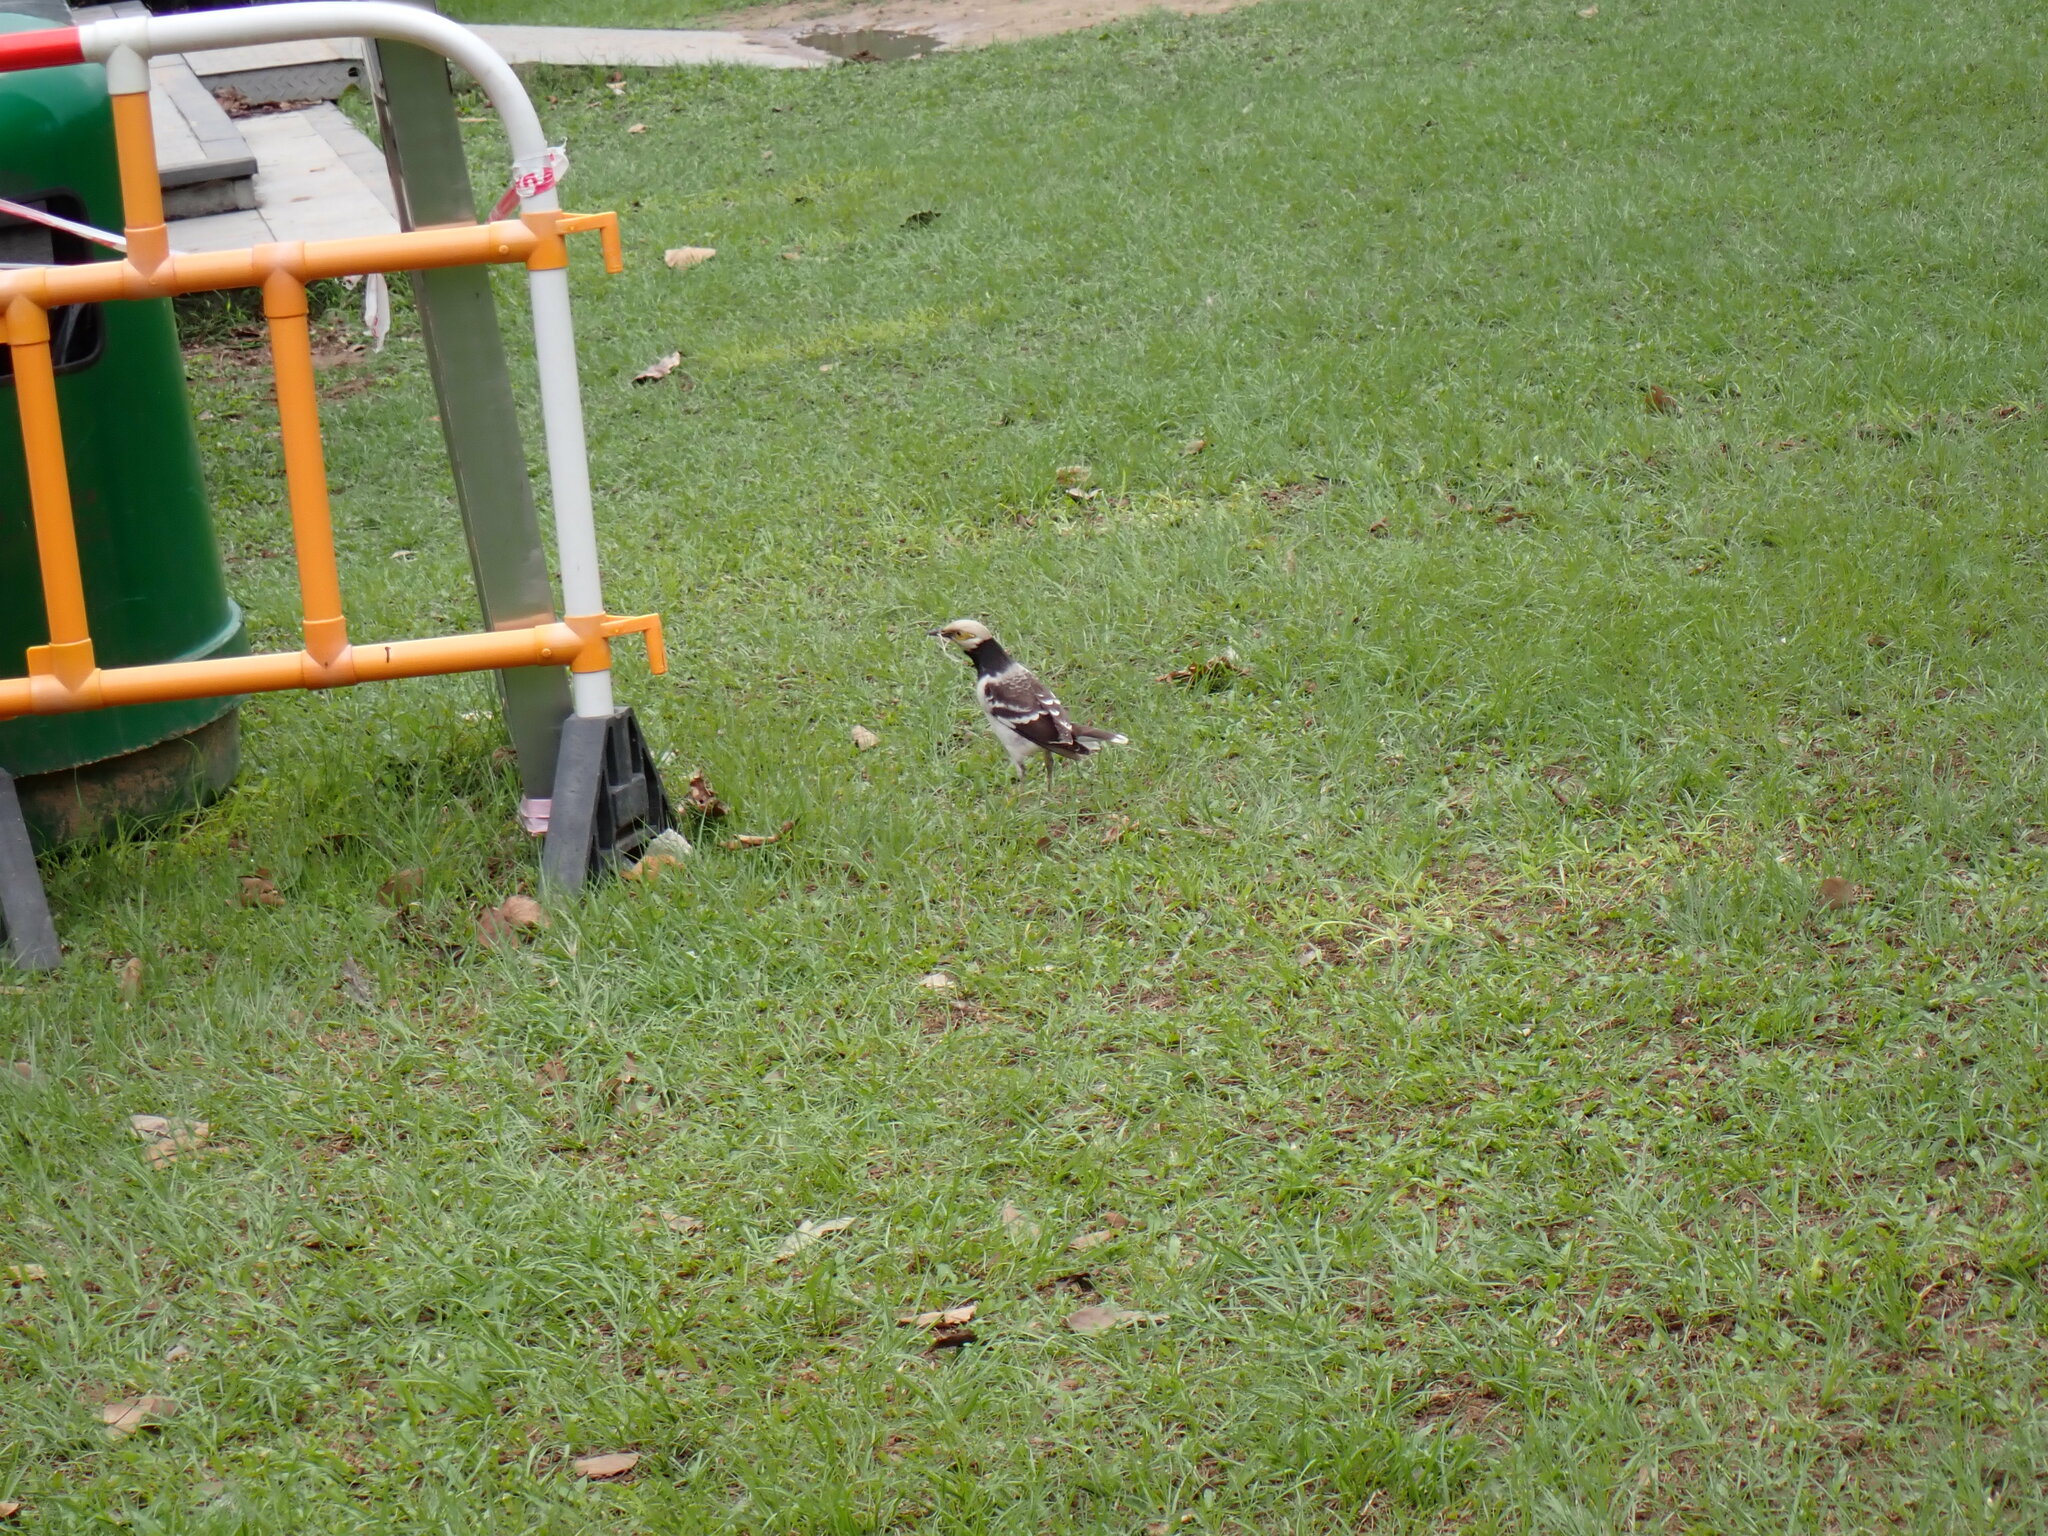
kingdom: Animalia
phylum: Chordata
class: Aves
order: Passeriformes
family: Sturnidae
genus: Gracupica
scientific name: Gracupica nigricollis
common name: Black-collared starling
